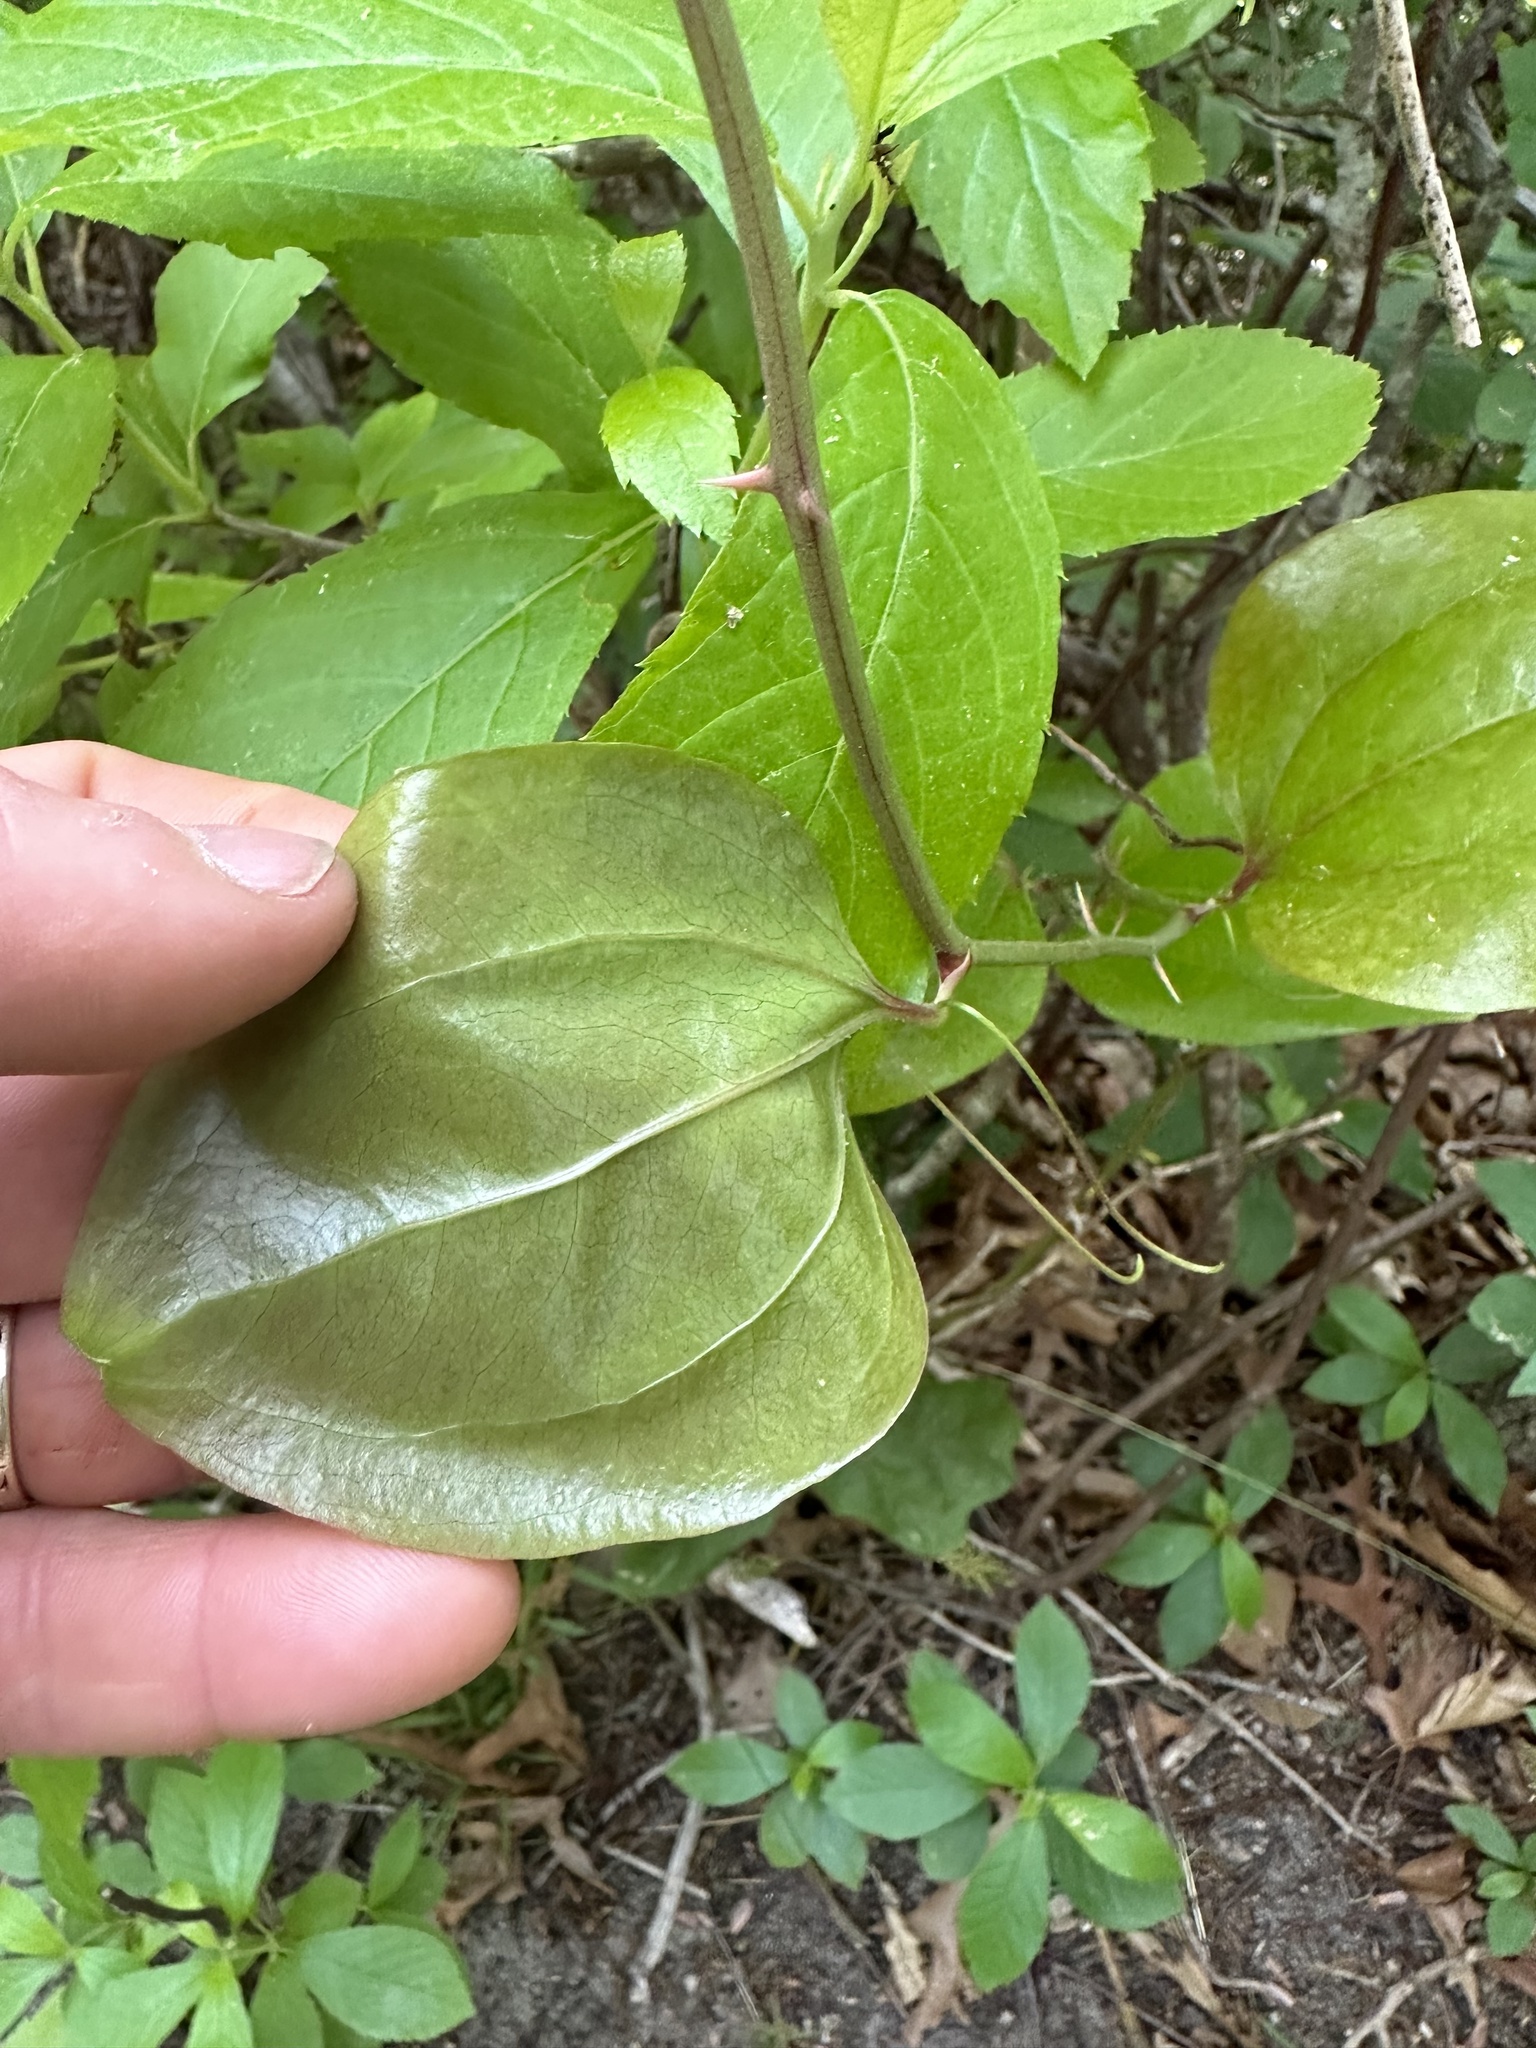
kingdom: Plantae
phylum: Tracheophyta
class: Liliopsida
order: Liliales
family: Smilacaceae
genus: Smilax
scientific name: Smilax rotundifolia
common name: Bullbriar
